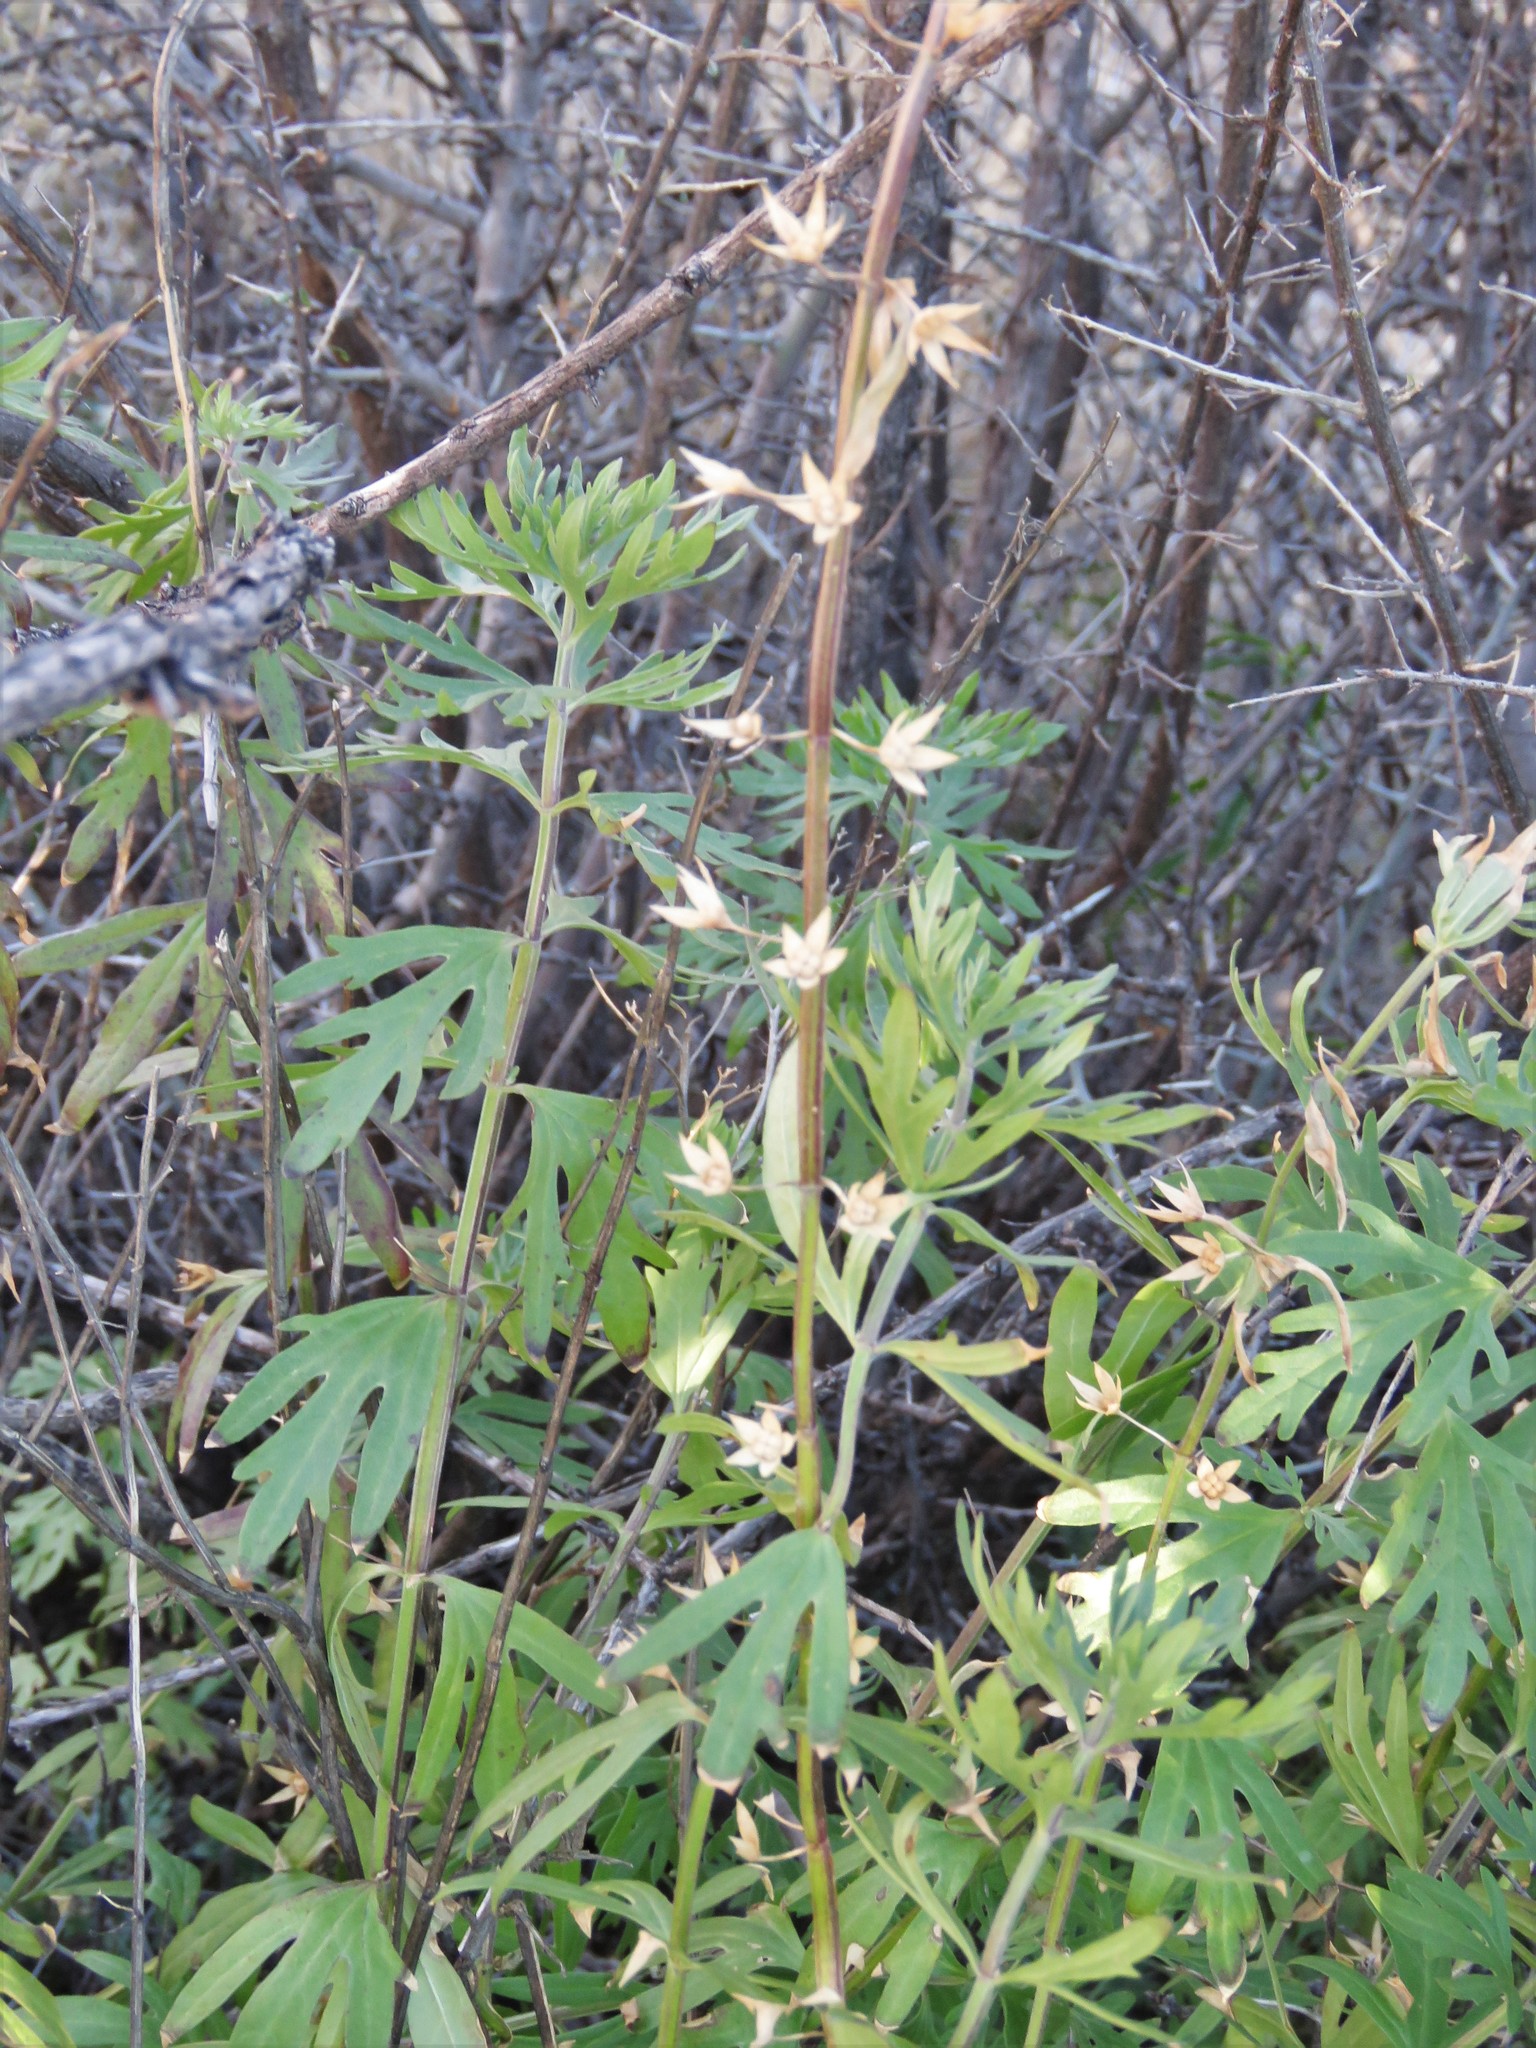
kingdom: Plantae
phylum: Tracheophyta
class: Magnoliopsida
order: Lamiales
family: Lamiaceae
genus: Teucrium
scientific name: Teucrium coahuilanum
